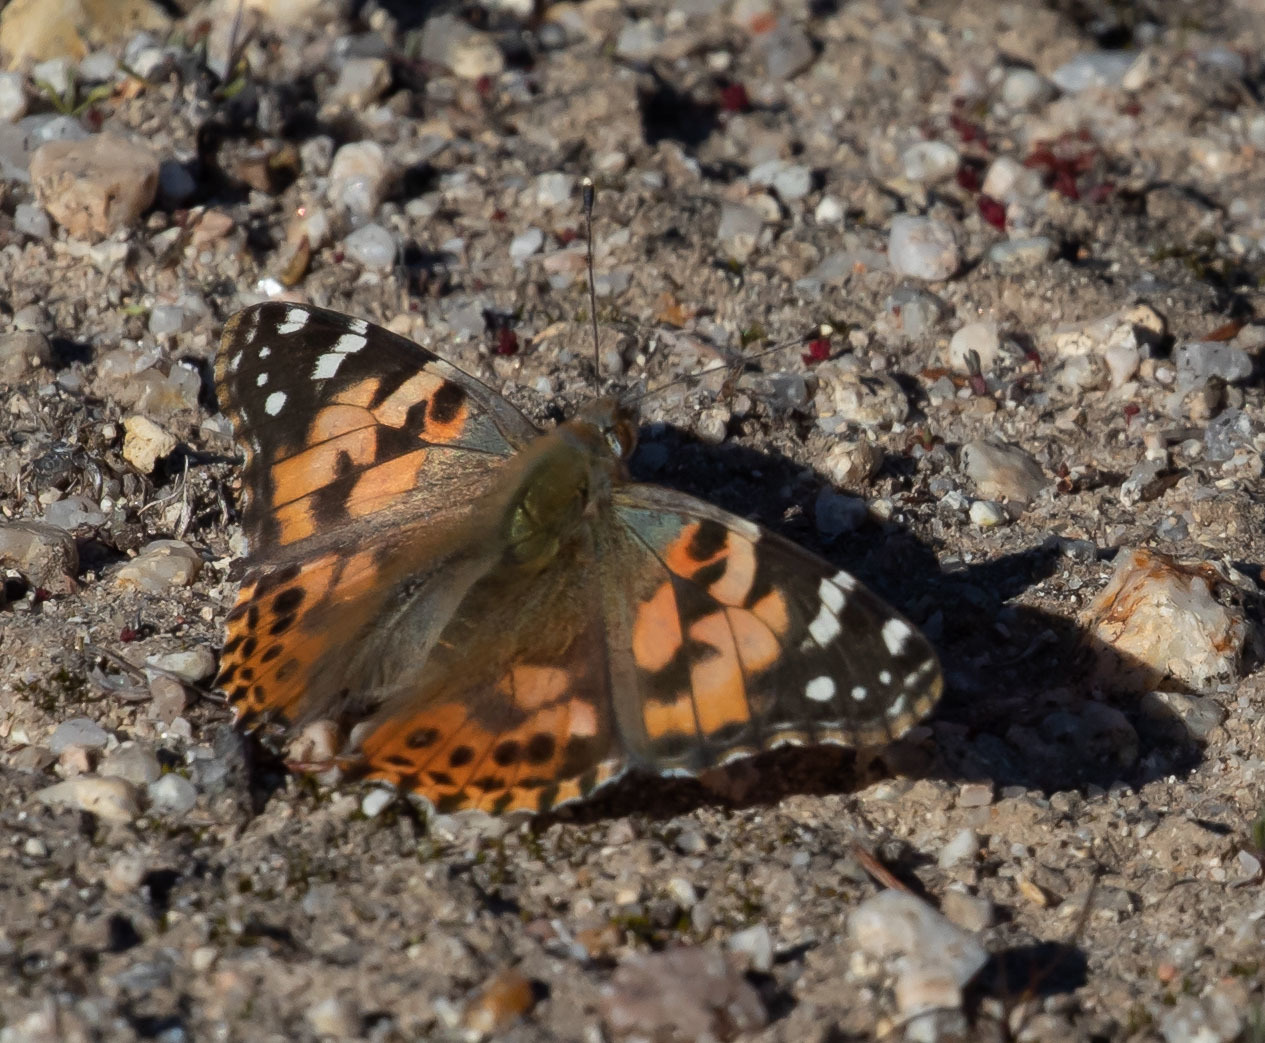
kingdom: Animalia
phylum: Arthropoda
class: Insecta
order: Lepidoptera
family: Nymphalidae
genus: Vanessa
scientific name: Vanessa cardui
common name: Painted lady
